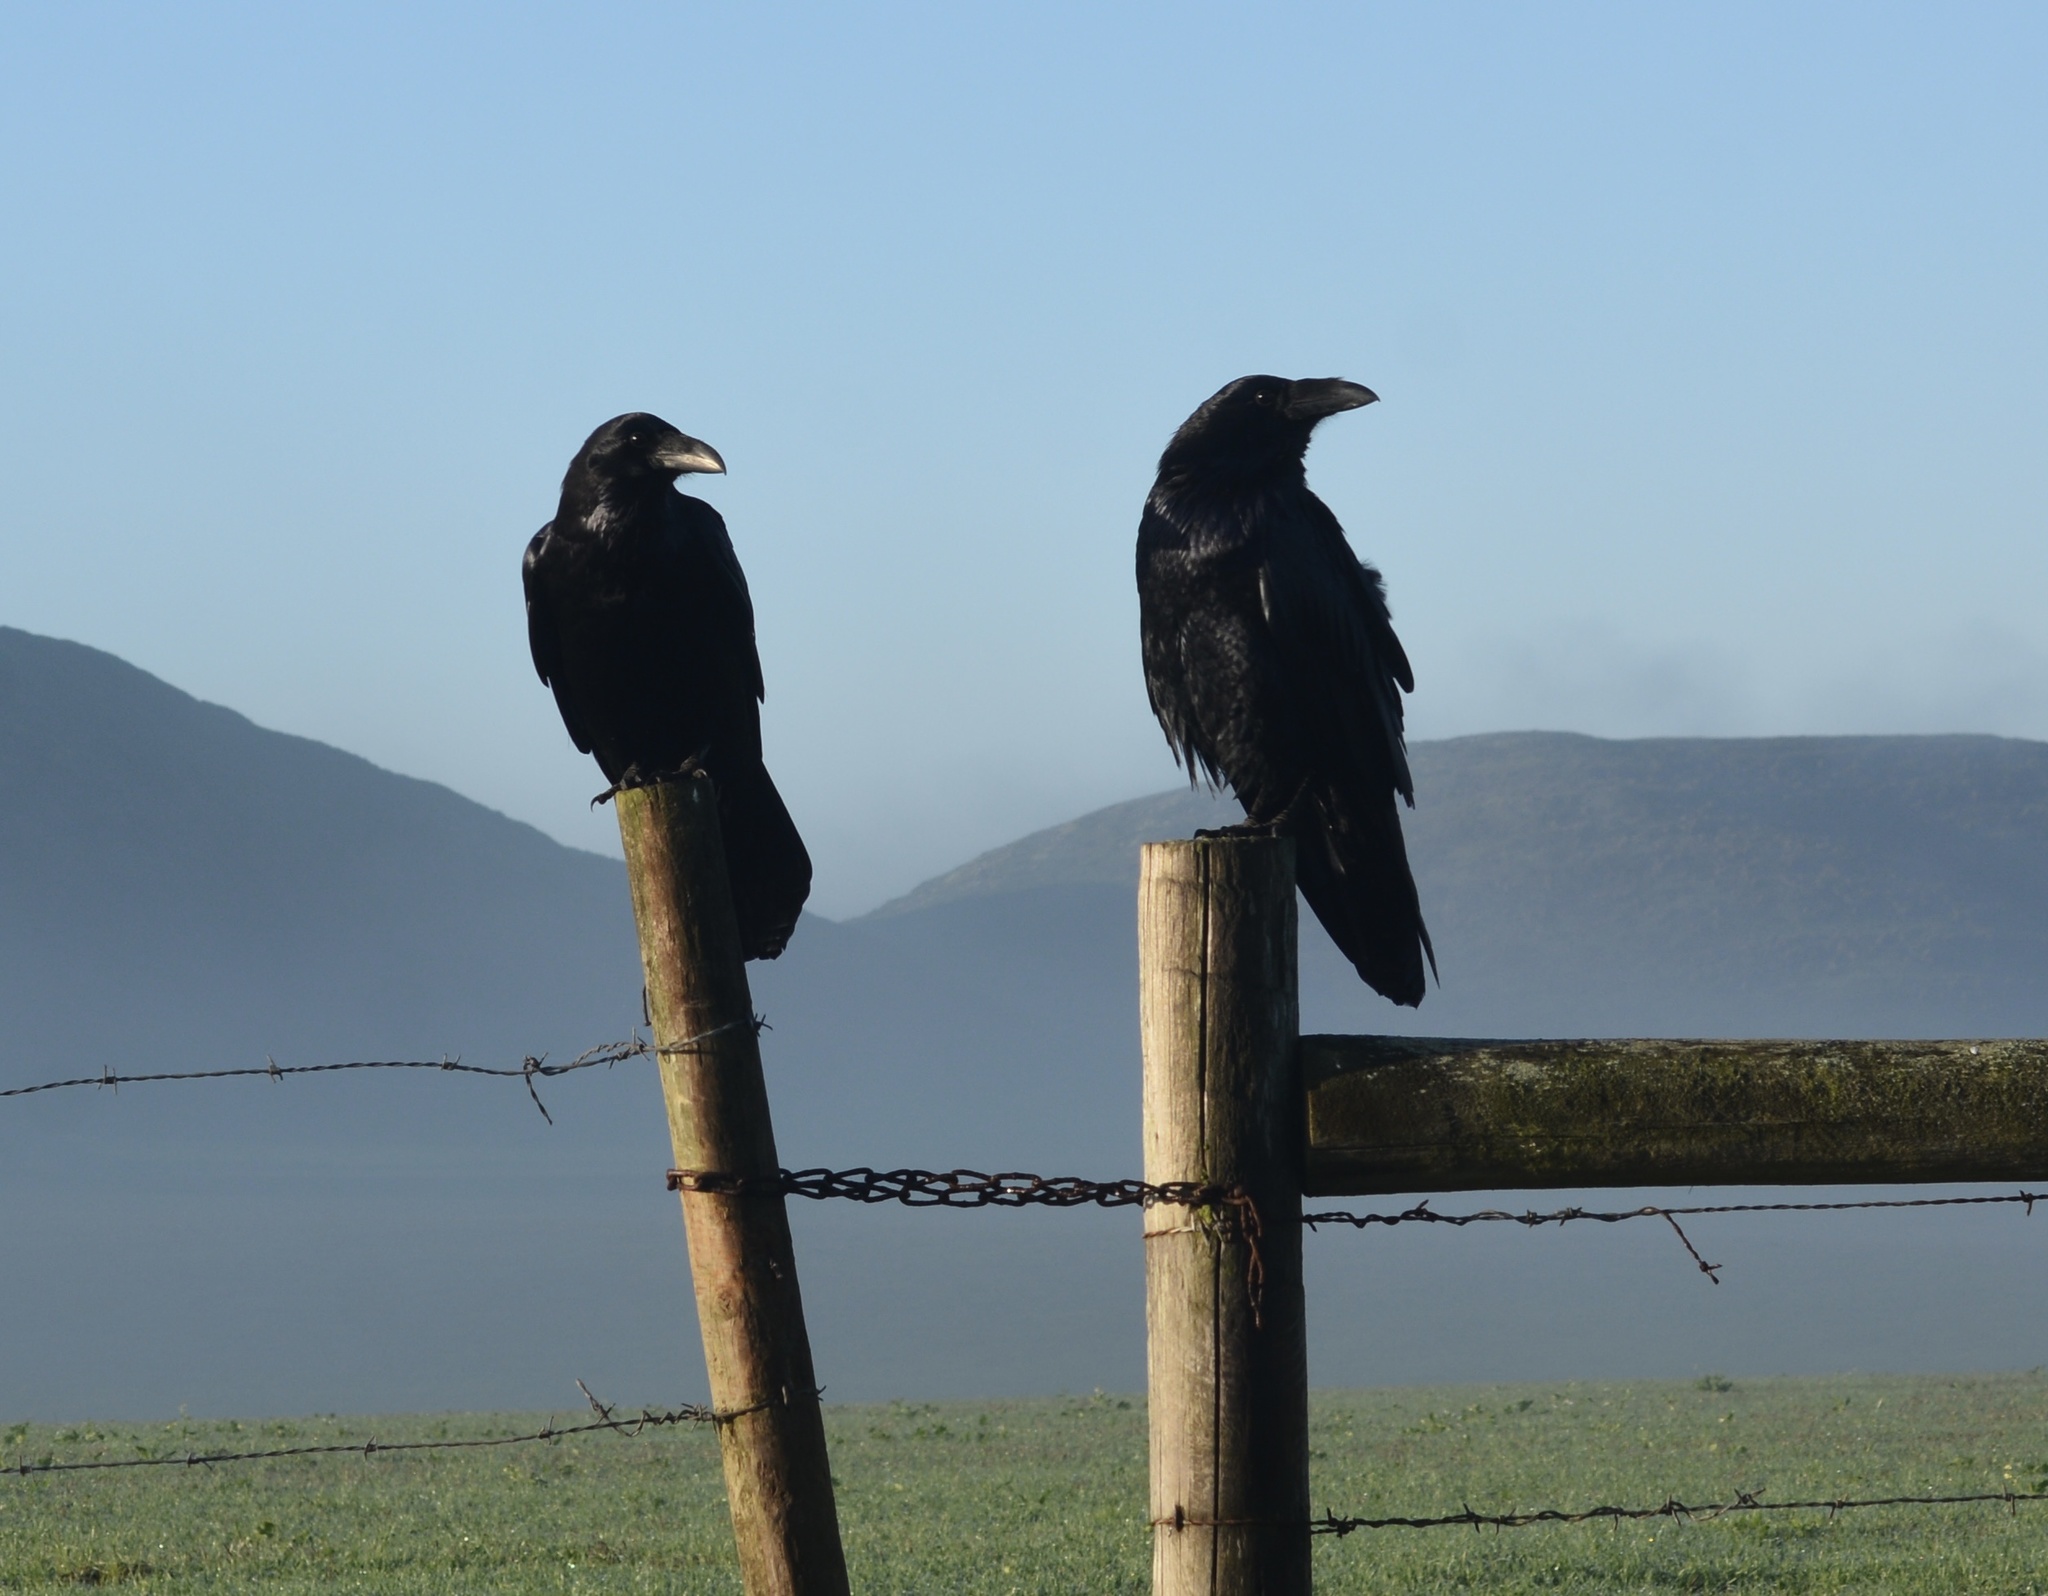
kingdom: Animalia
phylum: Chordata
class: Aves
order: Passeriformes
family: Corvidae
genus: Corvus
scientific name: Corvus corax
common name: Common raven
